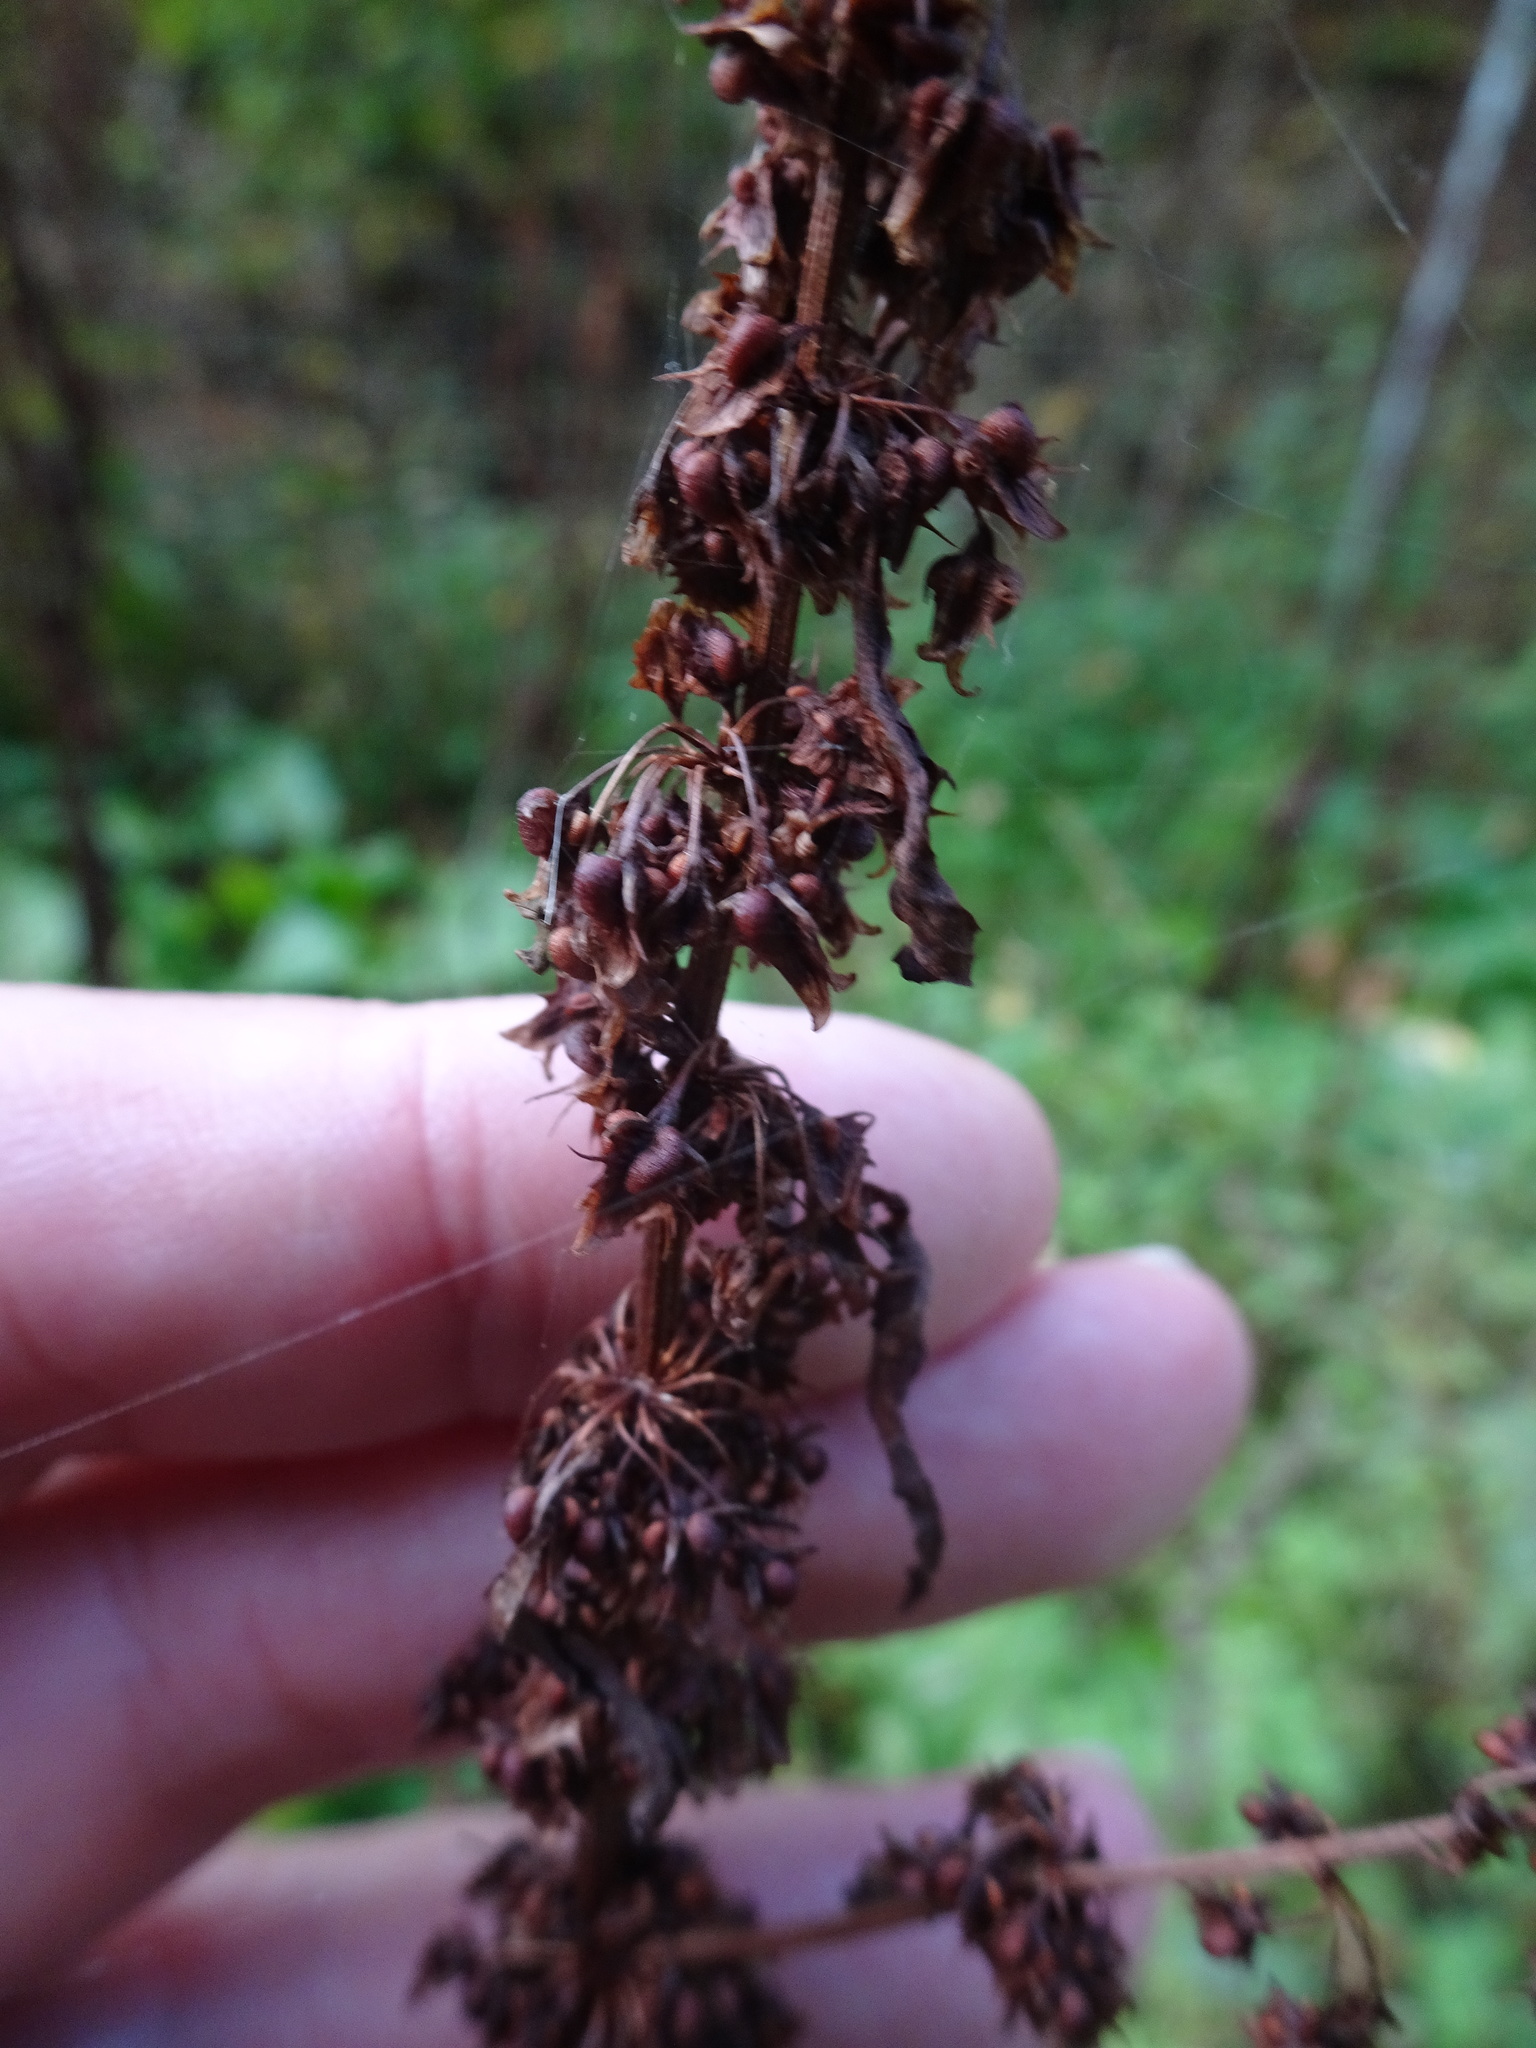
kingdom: Plantae
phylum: Tracheophyta
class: Magnoliopsida
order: Caryophyllales
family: Polygonaceae
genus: Rumex
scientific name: Rumex obtusifolius
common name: Bitter dock
